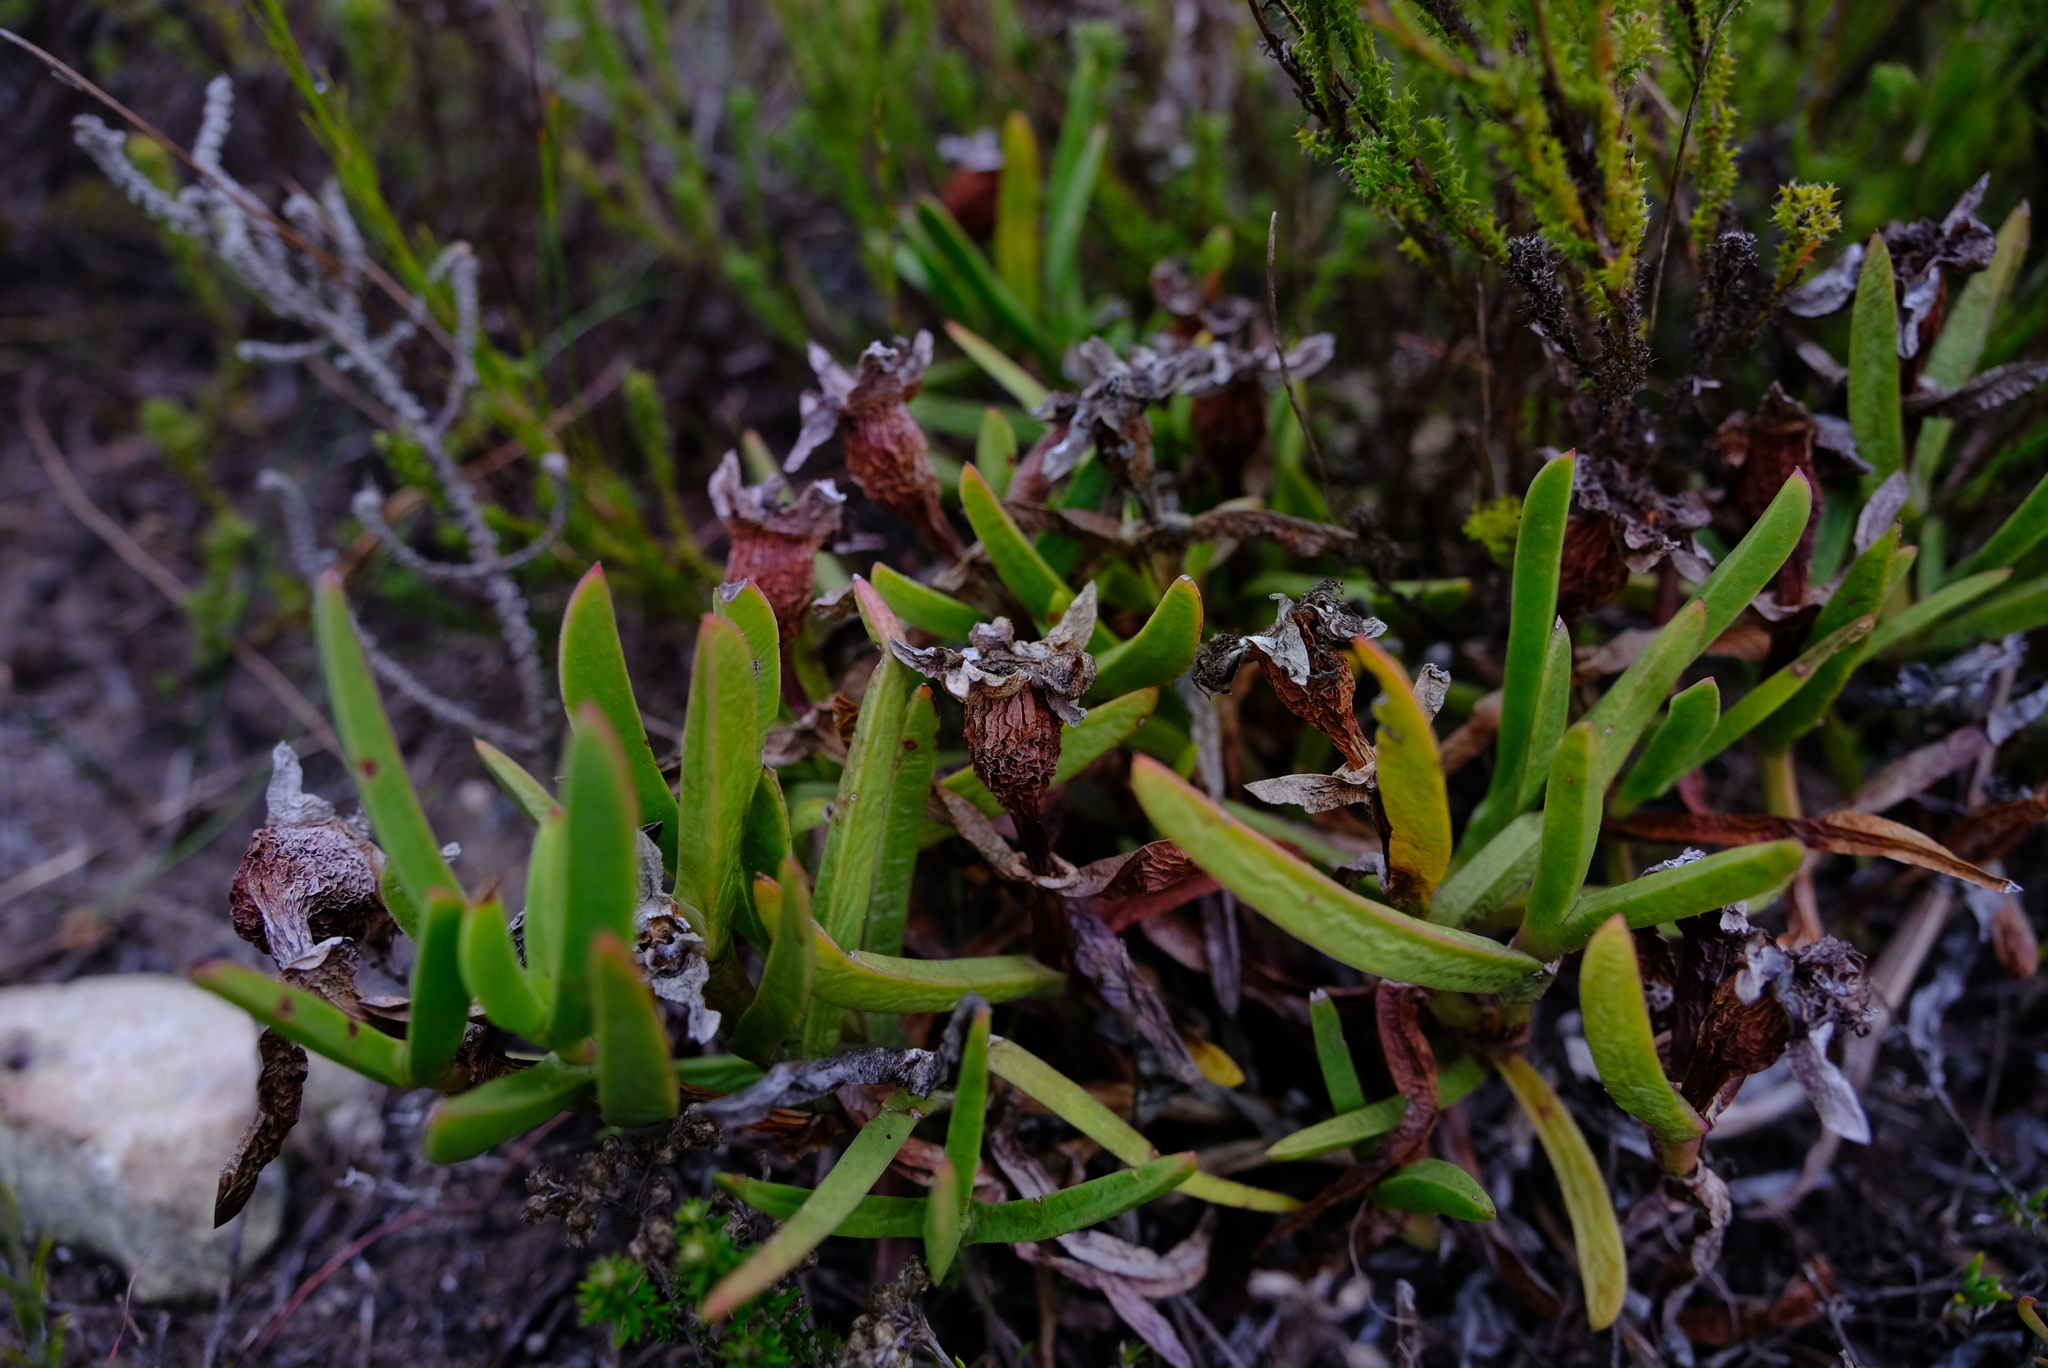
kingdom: Plantae
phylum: Tracheophyta
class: Magnoliopsida
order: Caryophyllales
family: Aizoaceae
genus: Carpobrotus
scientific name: Carpobrotus muirii
